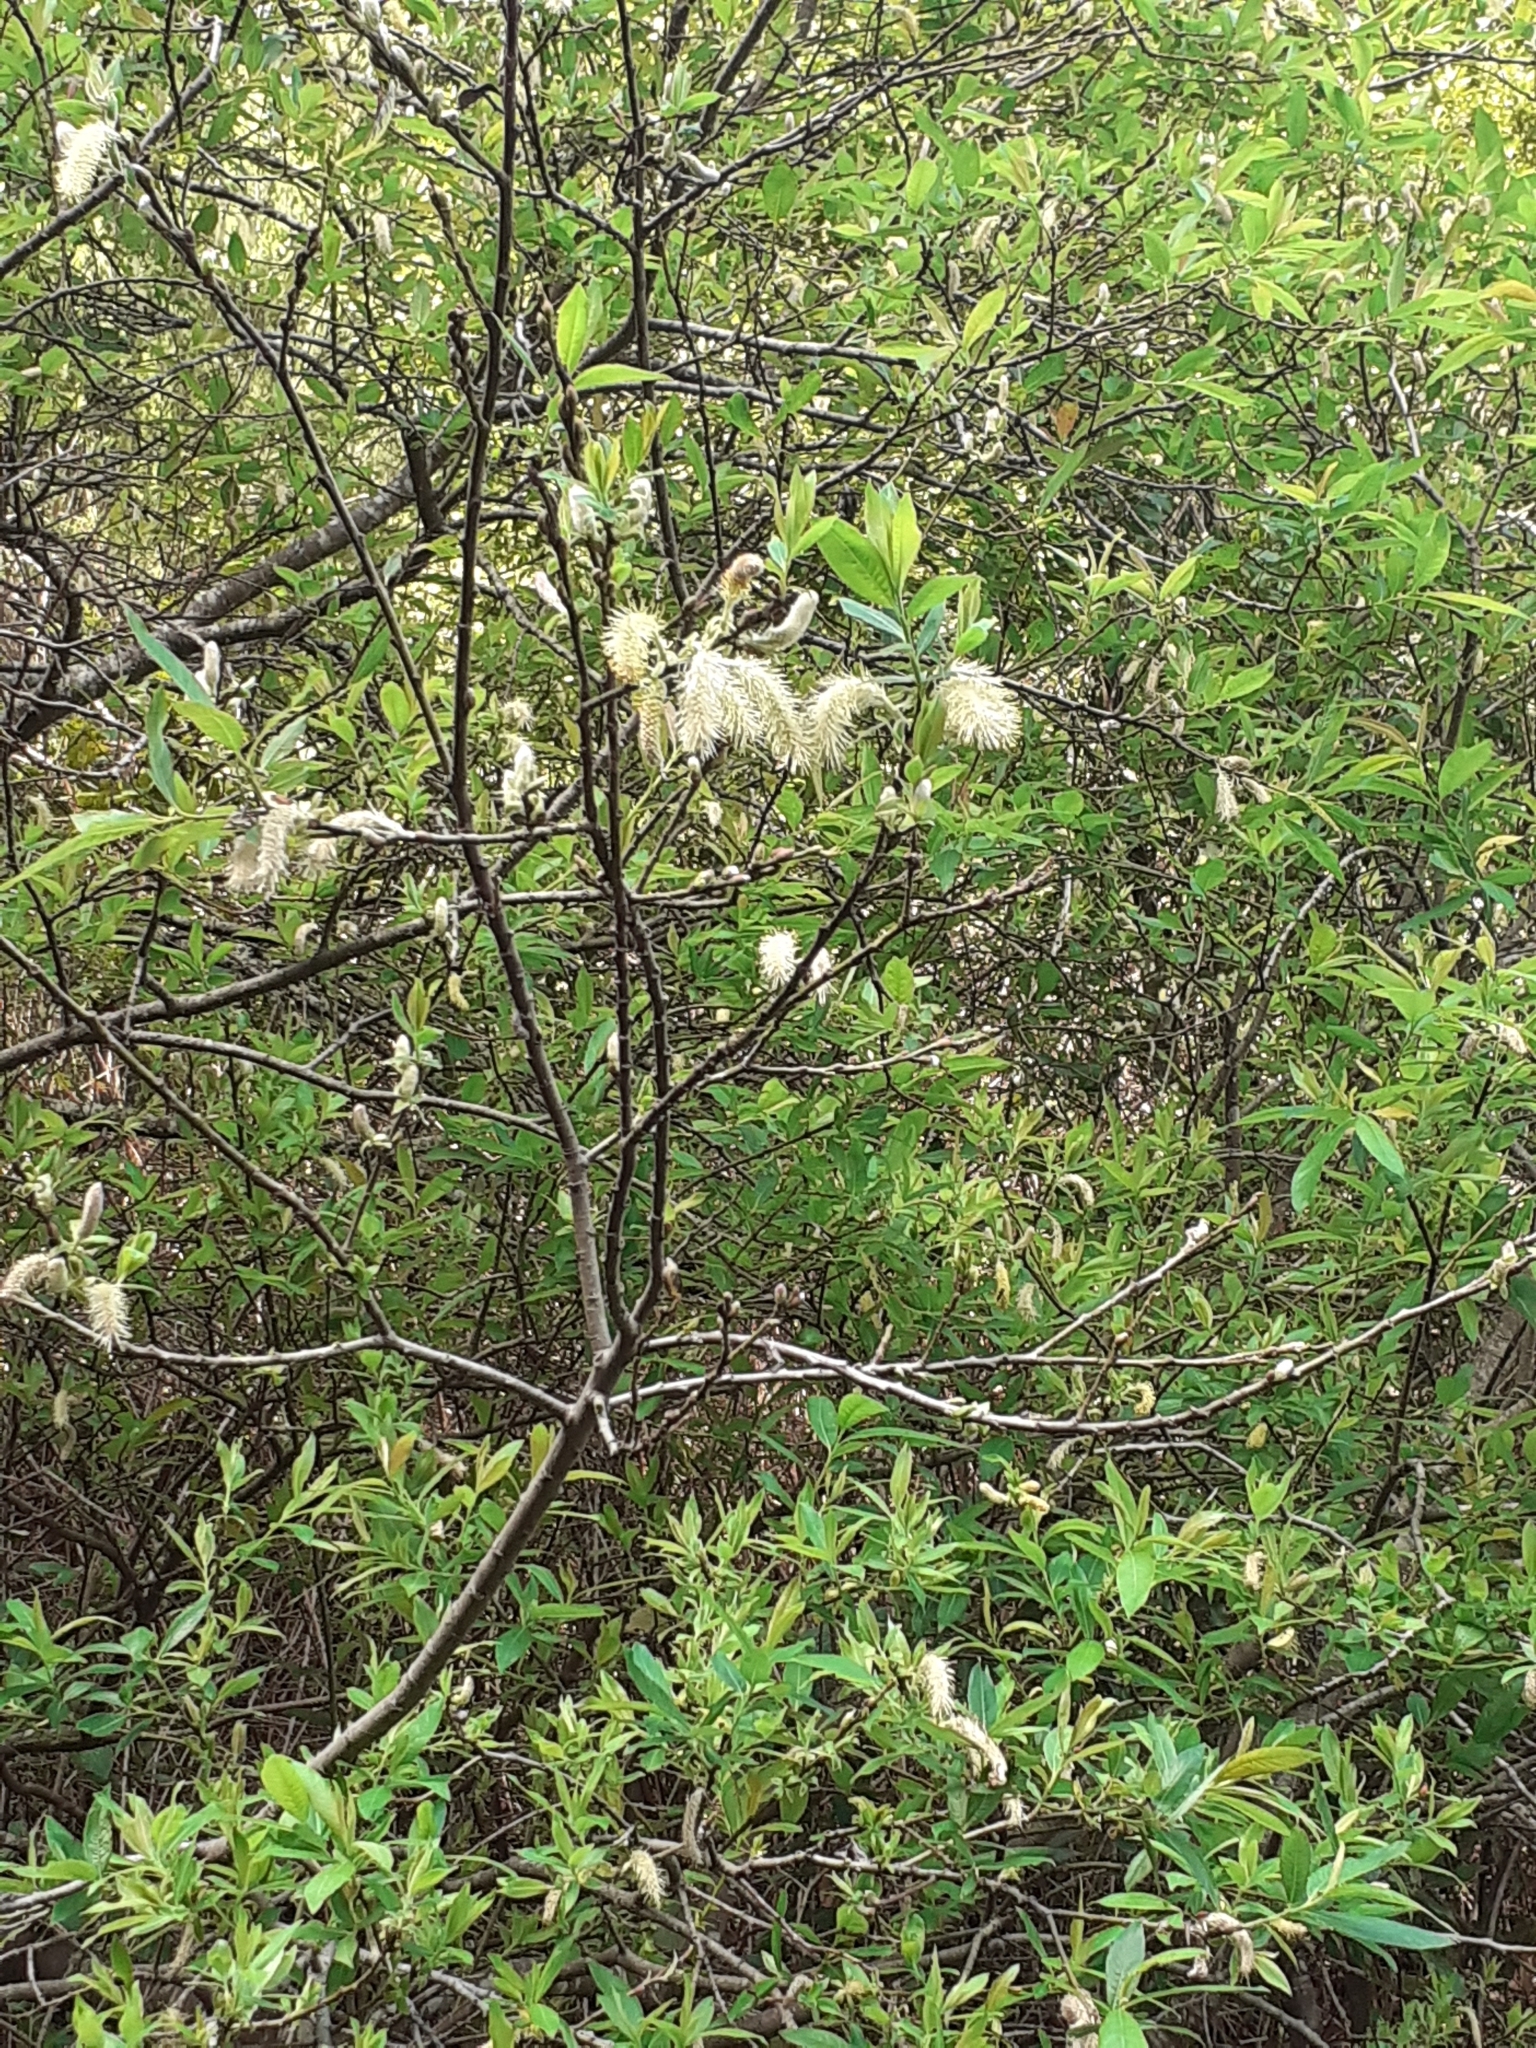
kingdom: Plantae
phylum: Tracheophyta
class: Magnoliopsida
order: Malpighiales
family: Salicaceae
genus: Salix
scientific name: Salix canariensis
